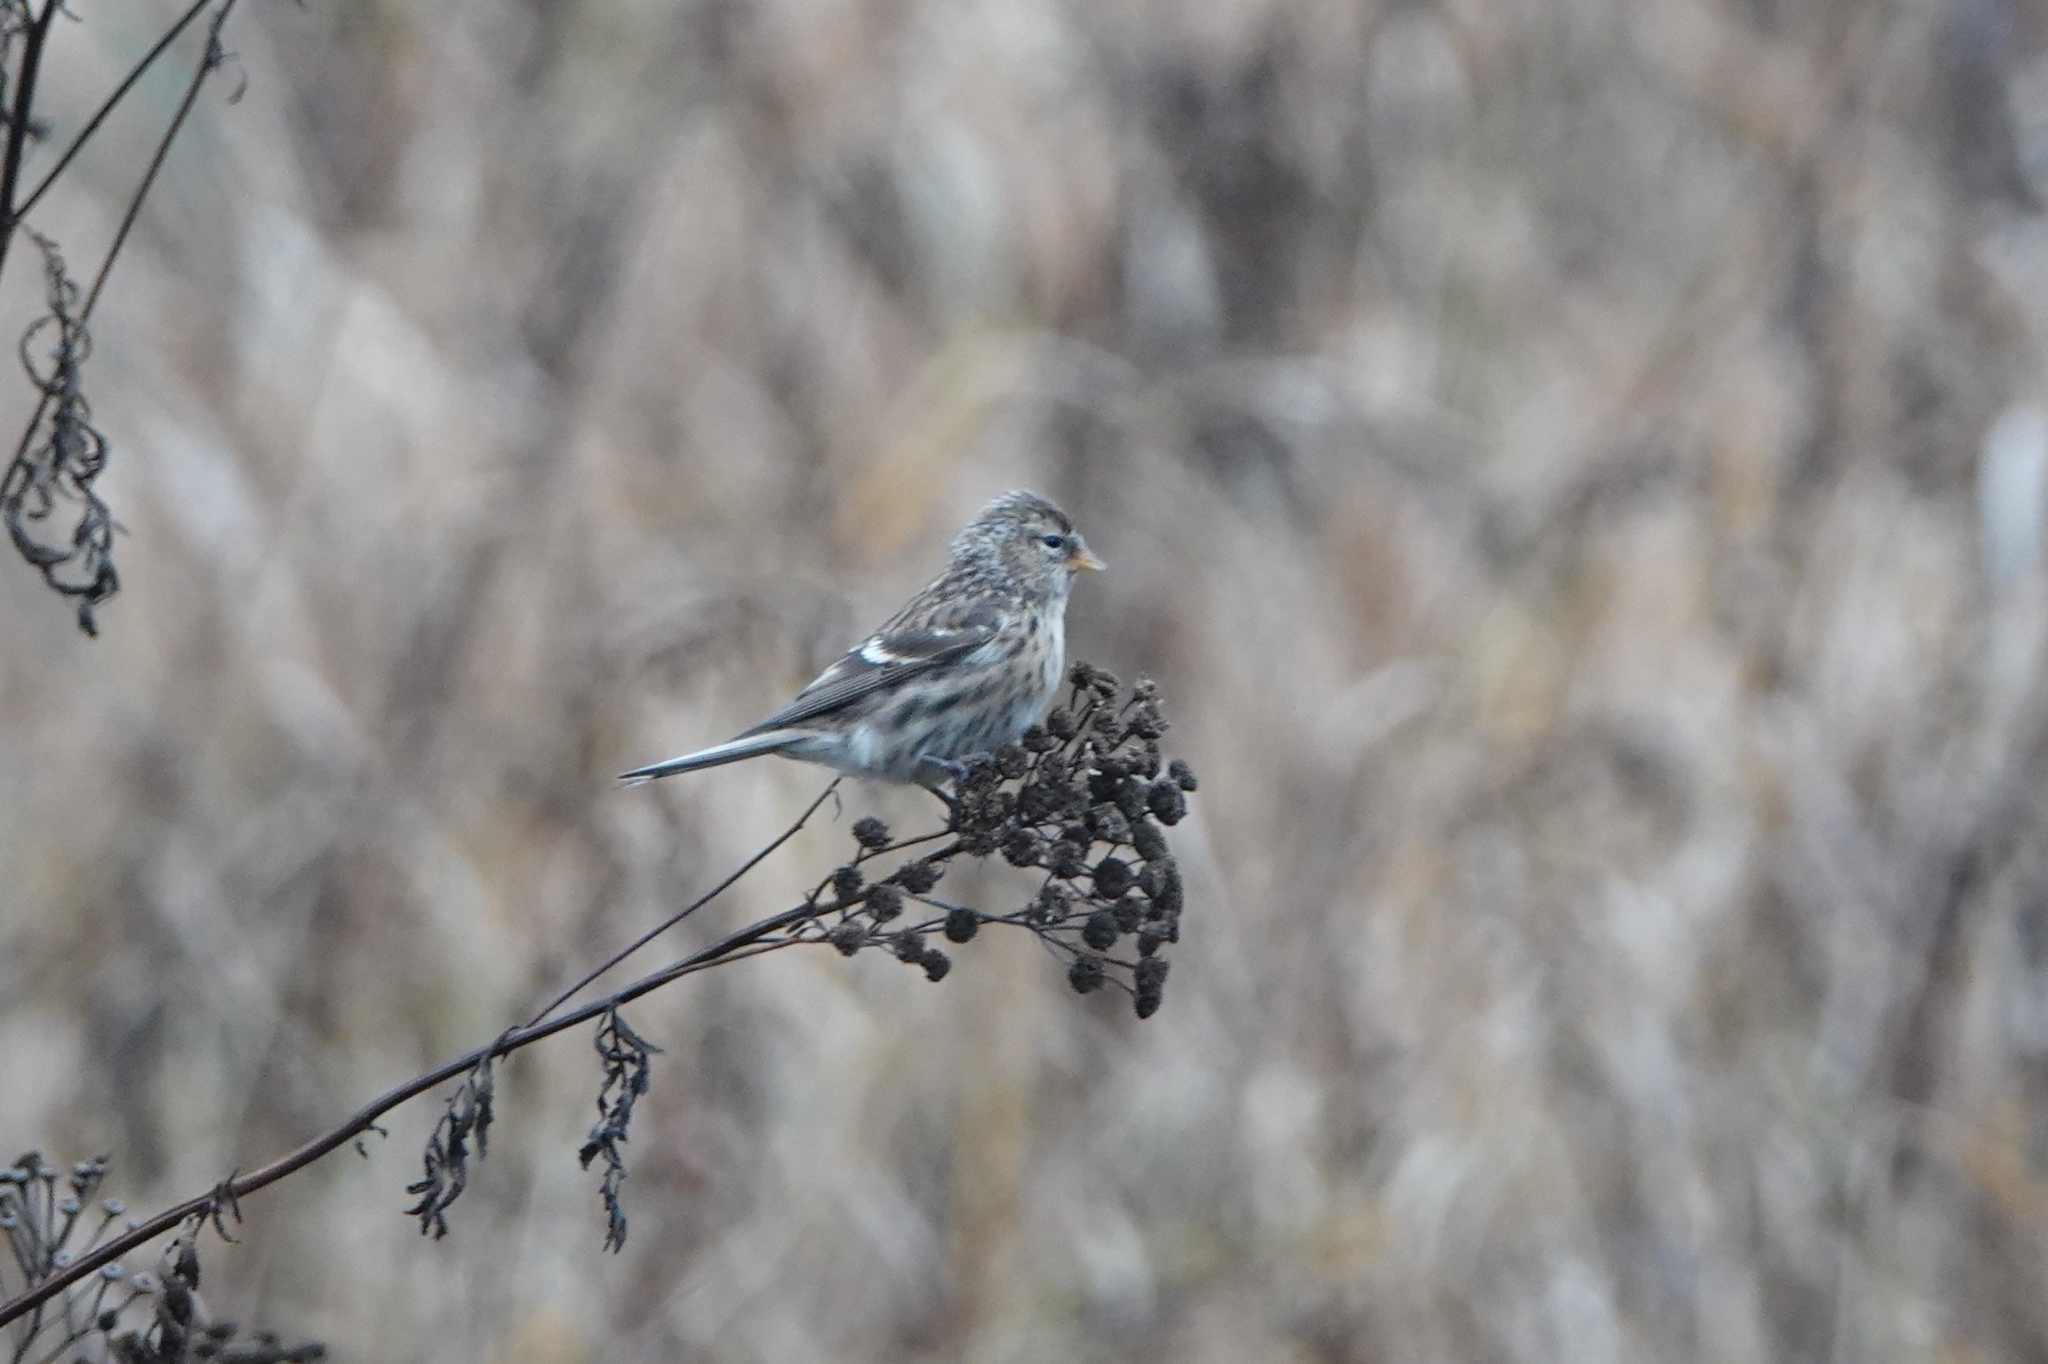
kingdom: Animalia
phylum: Chordata
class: Aves
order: Passeriformes
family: Fringillidae
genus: Acanthis
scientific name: Acanthis flammea
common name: Common redpoll
